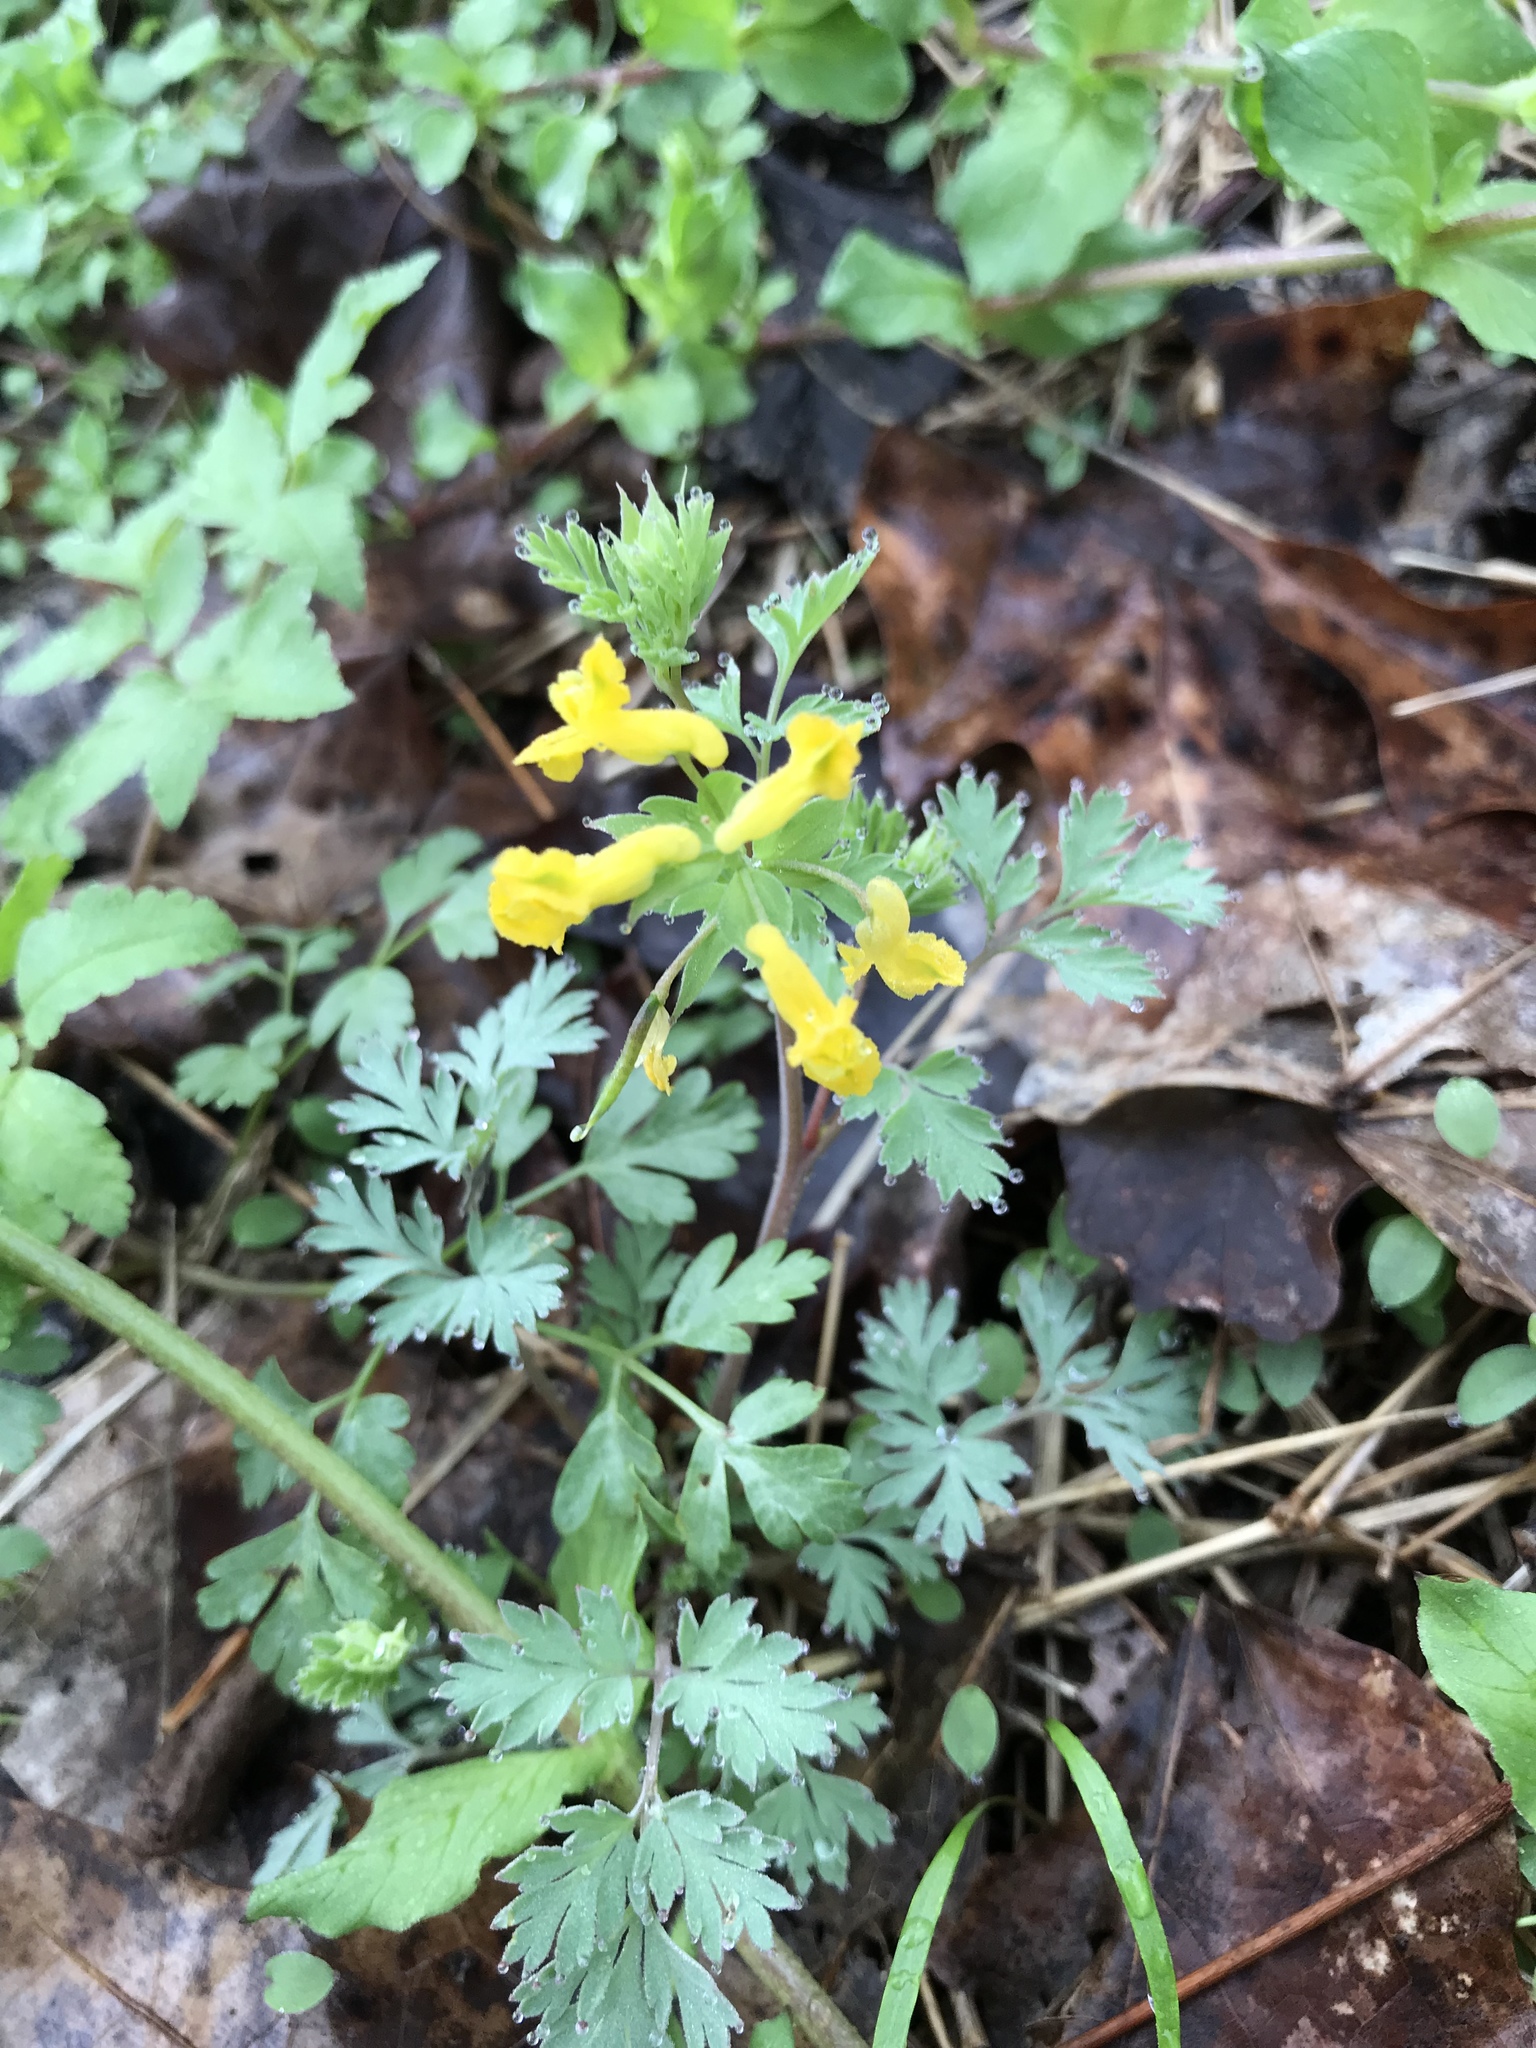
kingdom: Plantae
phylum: Tracheophyta
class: Magnoliopsida
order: Ranunculales
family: Papaveraceae
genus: Corydalis
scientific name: Corydalis flavula
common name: Yellow corydalis
